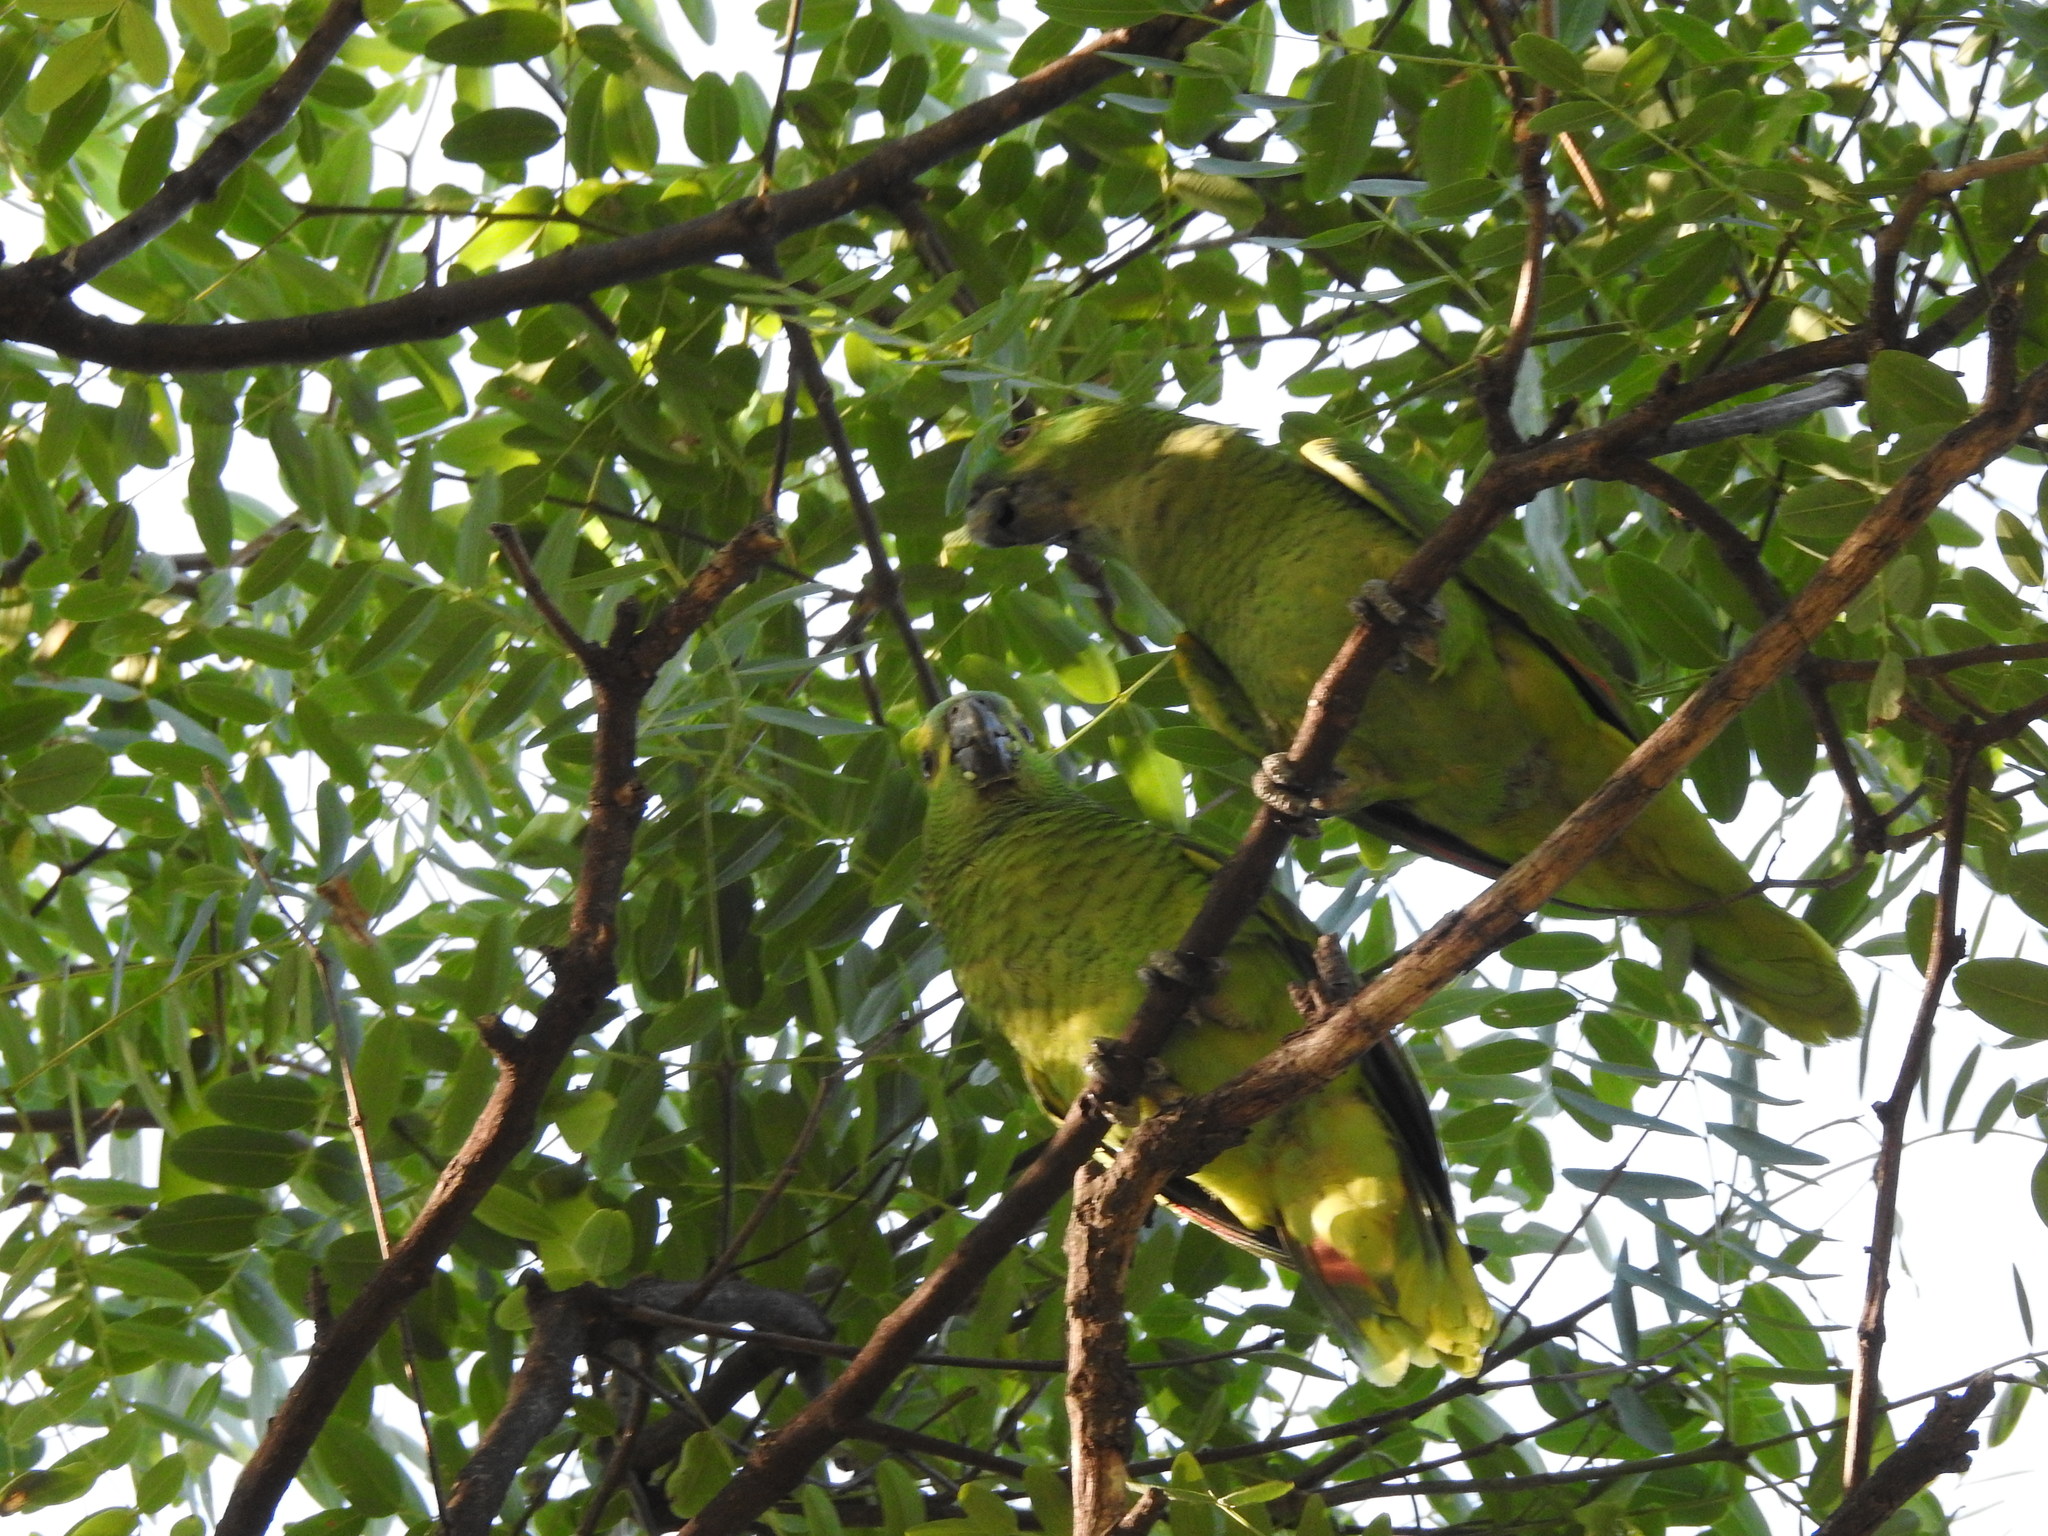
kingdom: Animalia
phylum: Chordata
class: Aves
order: Psittaciformes
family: Psittacidae
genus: Amazona
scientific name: Amazona aestiva
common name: Turquoise-fronted amazon
